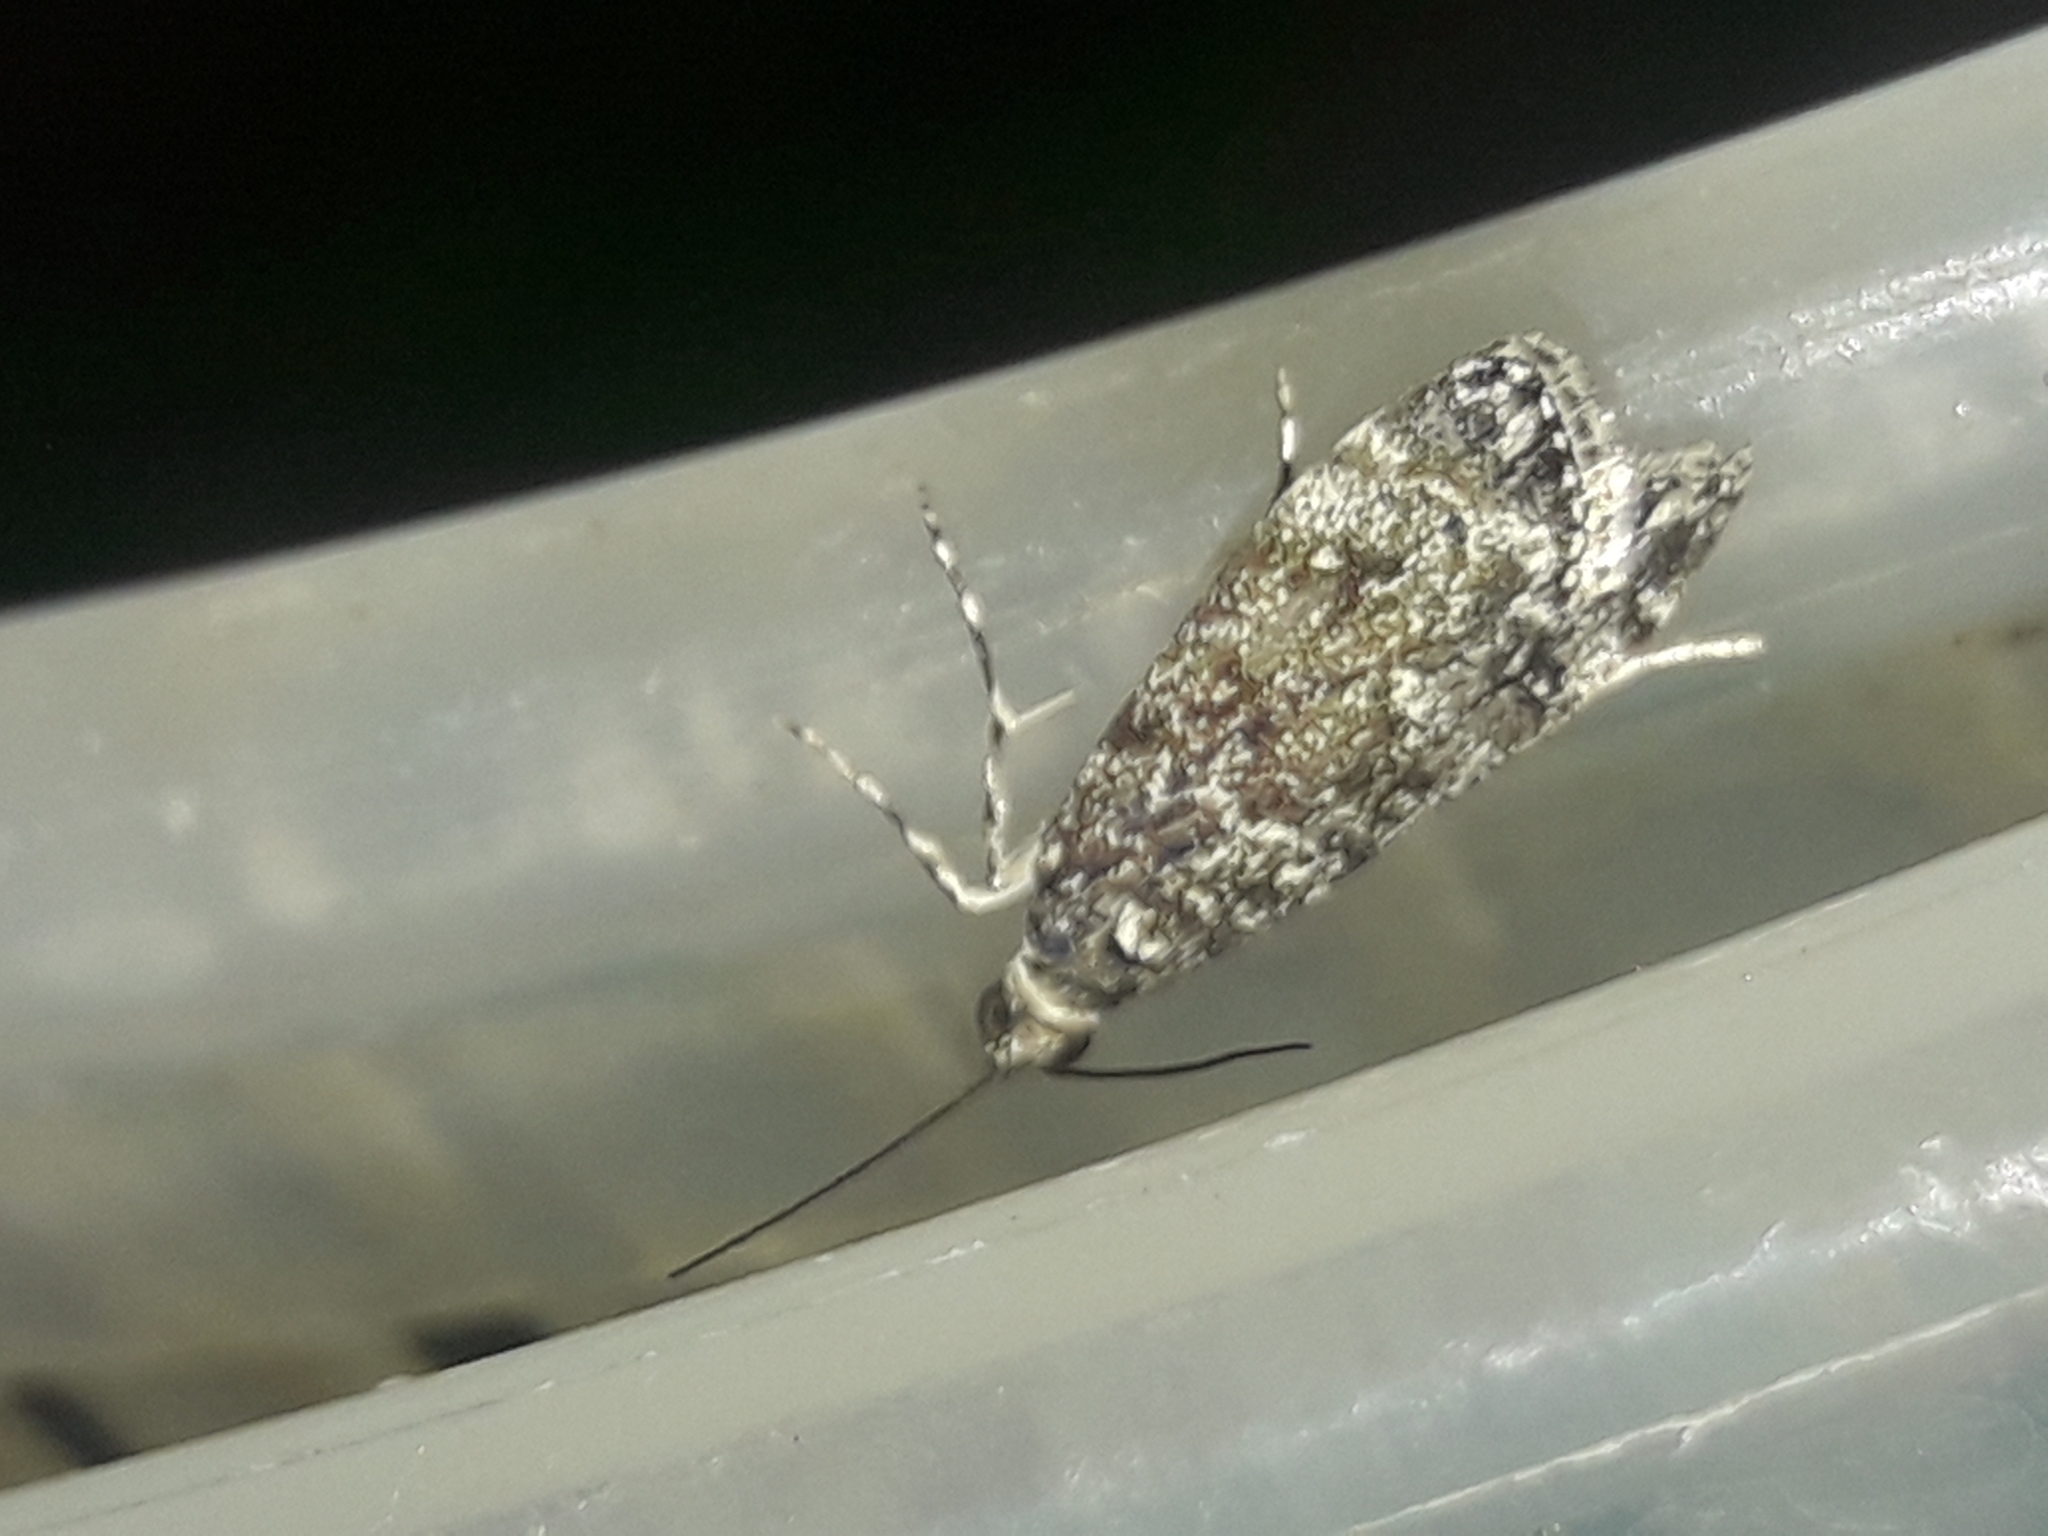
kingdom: Animalia
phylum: Arthropoda
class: Insecta
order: Lepidoptera
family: Crambidae
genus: Eudonia
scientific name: Eudonia philerga
